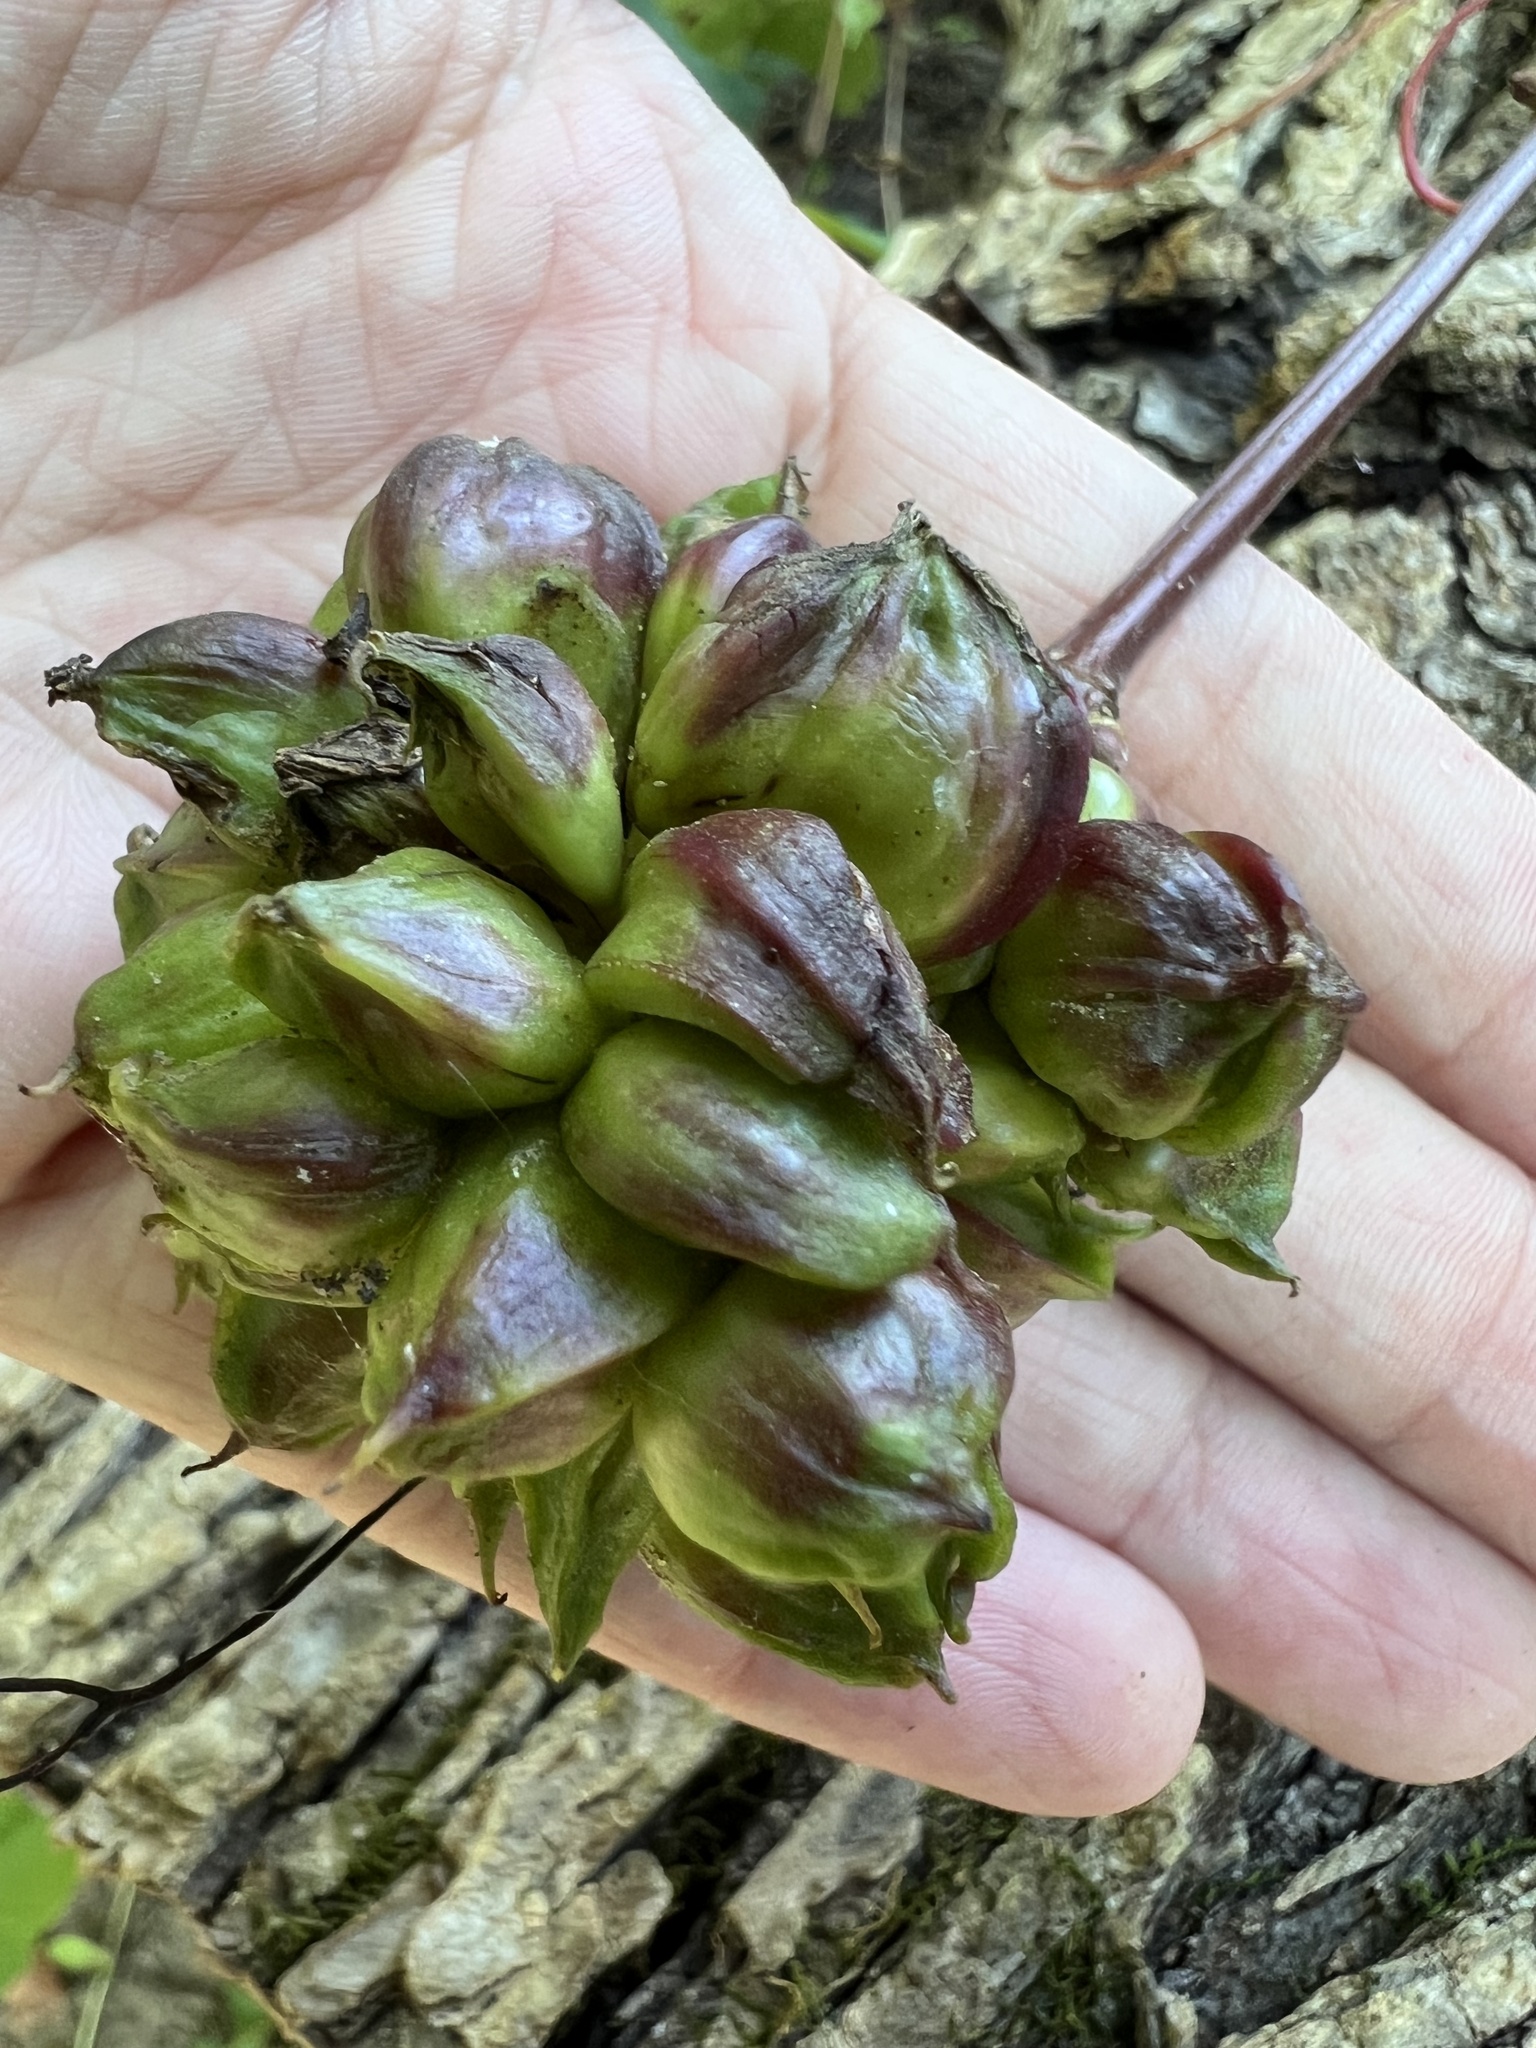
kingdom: Animalia
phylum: Arthropoda
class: Insecta
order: Diptera
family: Cecidomyiidae
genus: Ampelomyia
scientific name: Ampelomyia vitiscoryloides
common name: Grape filbert gall
